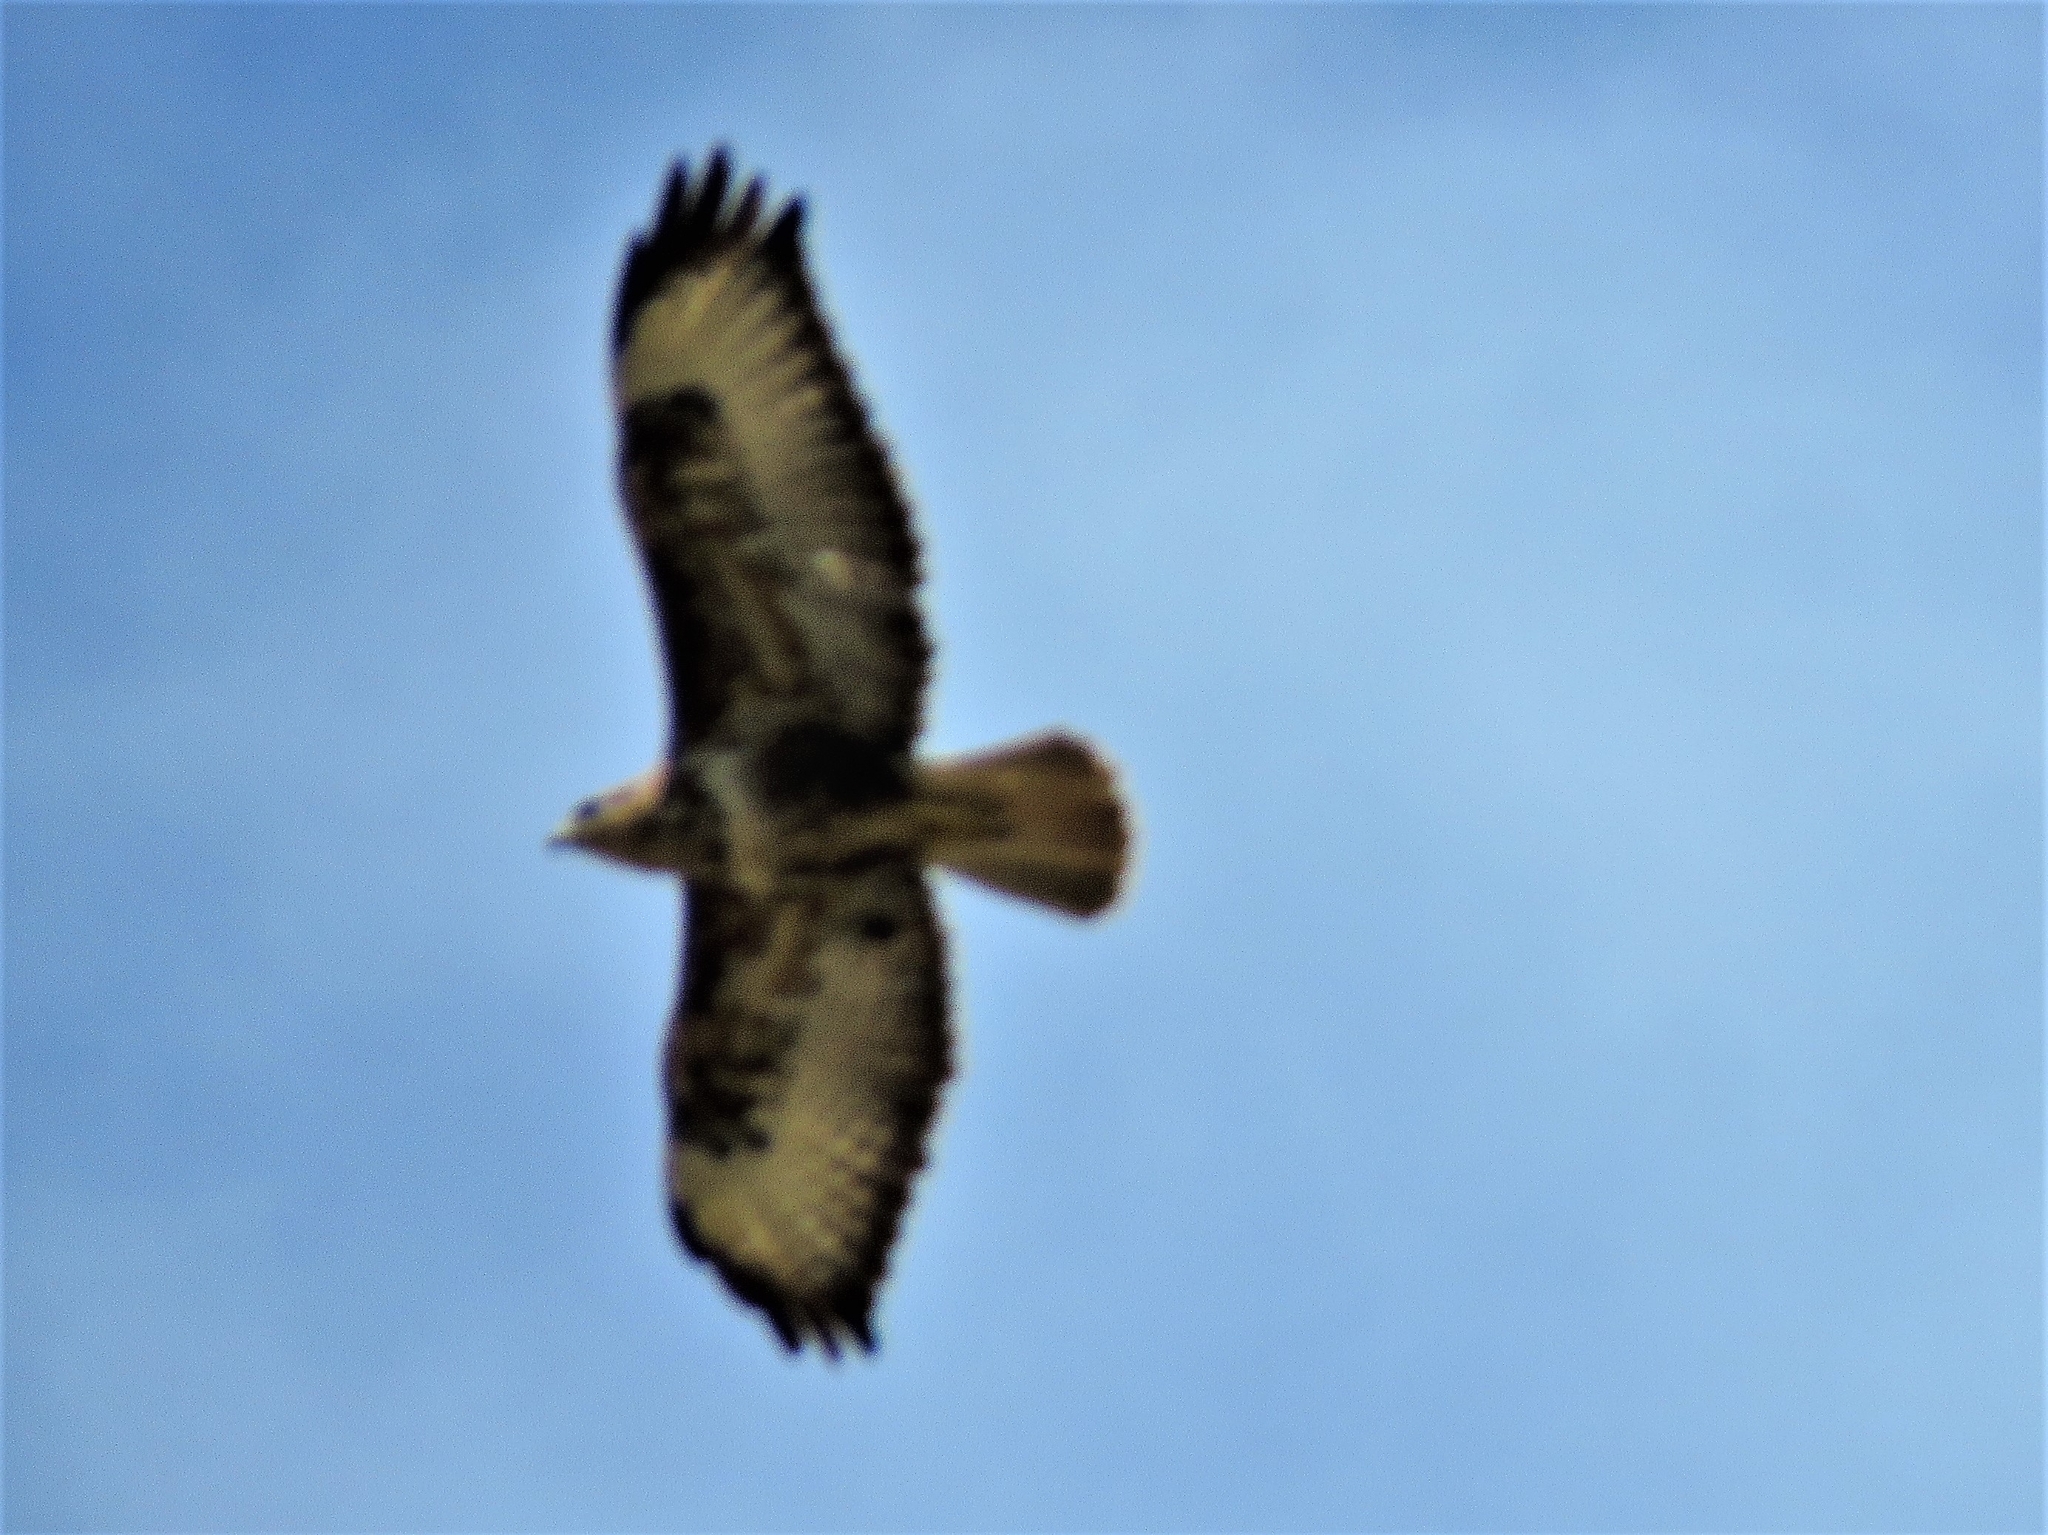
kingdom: Animalia
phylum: Chordata
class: Aves
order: Accipitriformes
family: Accipitridae
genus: Buteo
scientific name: Buteo buteo
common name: Common buzzard
